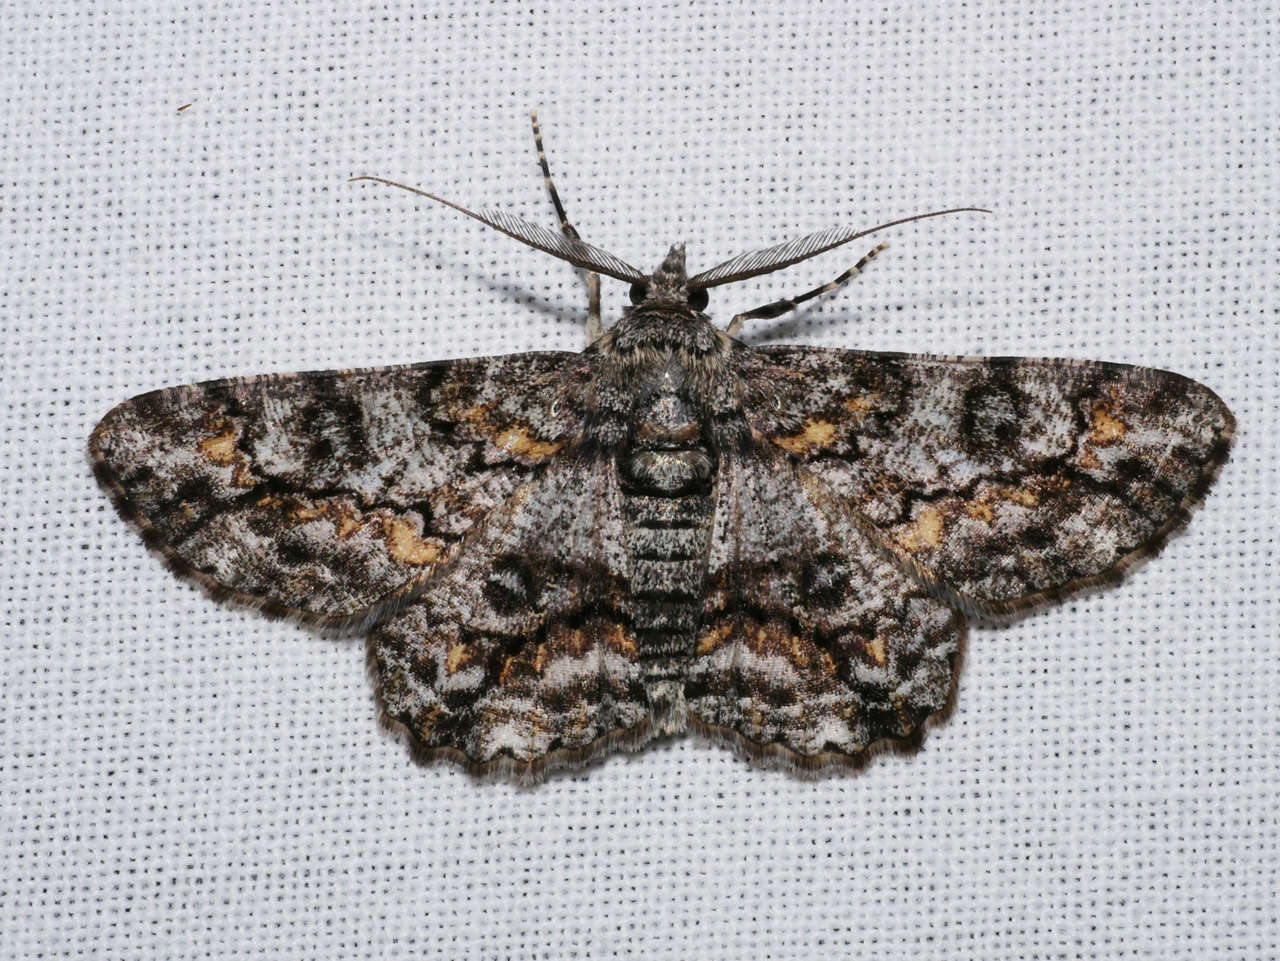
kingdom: Animalia
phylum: Arthropoda
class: Insecta
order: Lepidoptera
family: Geometridae
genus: Cleora
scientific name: Cleora
